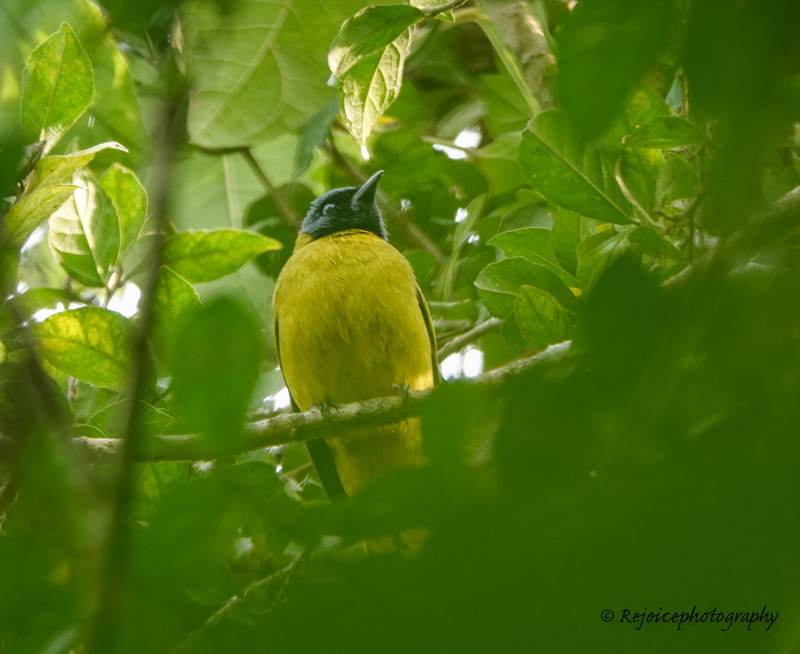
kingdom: Animalia
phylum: Chordata
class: Aves
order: Passeriformes
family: Pycnonotidae
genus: Microtarsus
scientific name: Microtarsus
